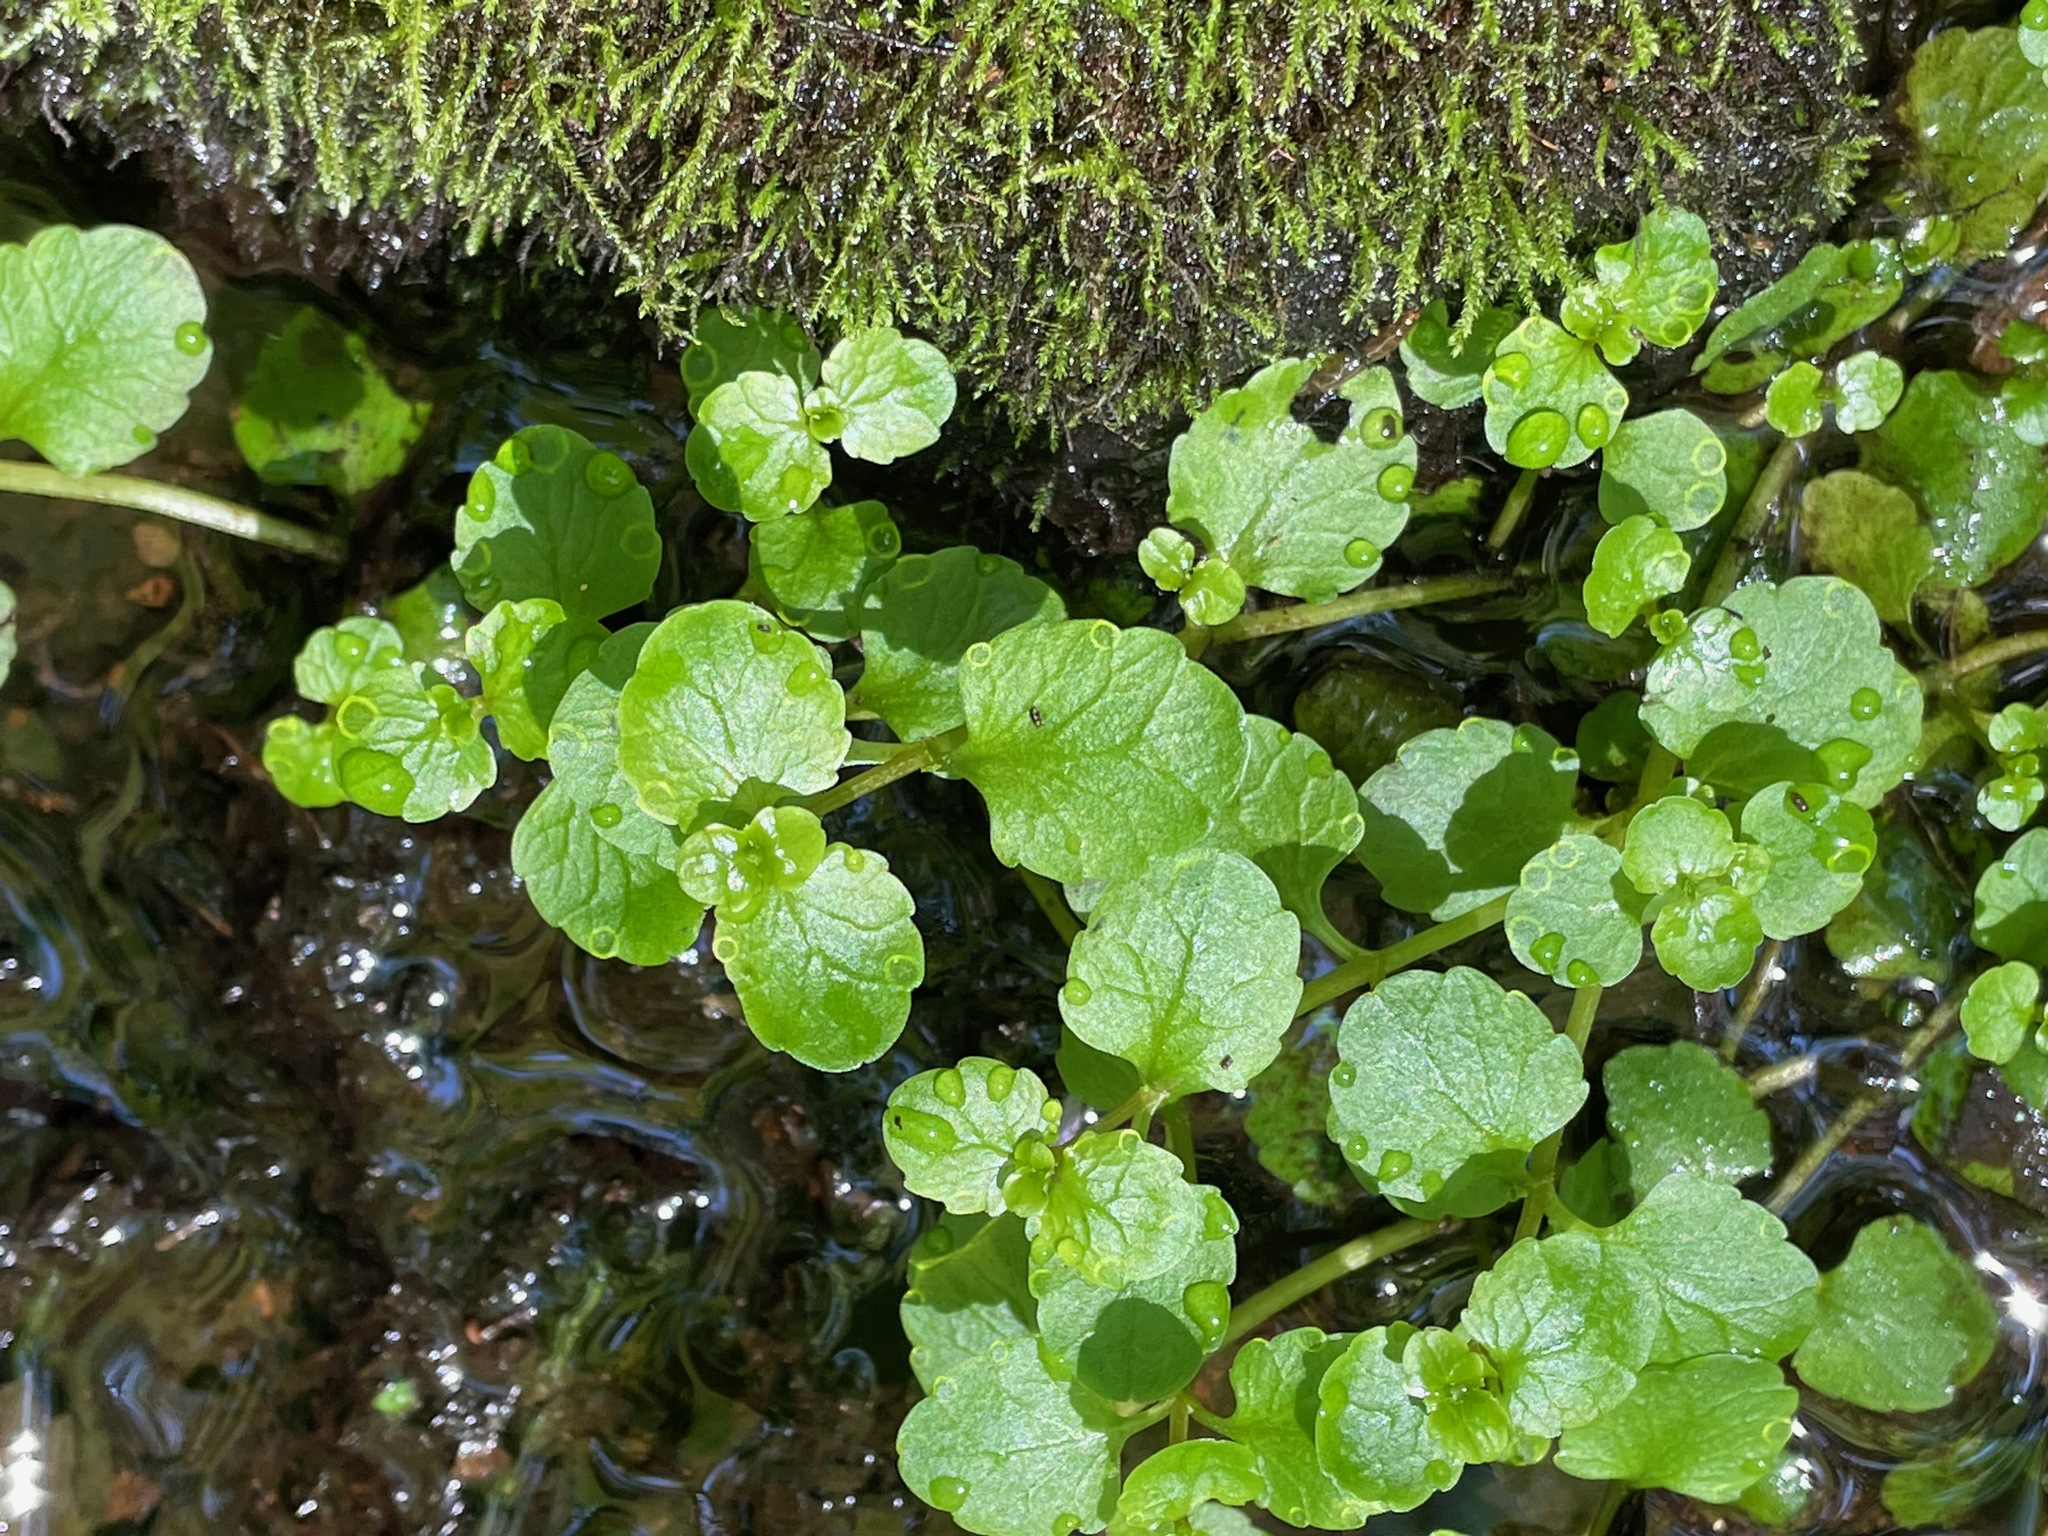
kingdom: Plantae
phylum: Tracheophyta
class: Magnoliopsida
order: Saxifragales
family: Saxifragaceae
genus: Chrysosplenium
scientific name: Chrysosplenium americanum
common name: American golden-saxifrage
